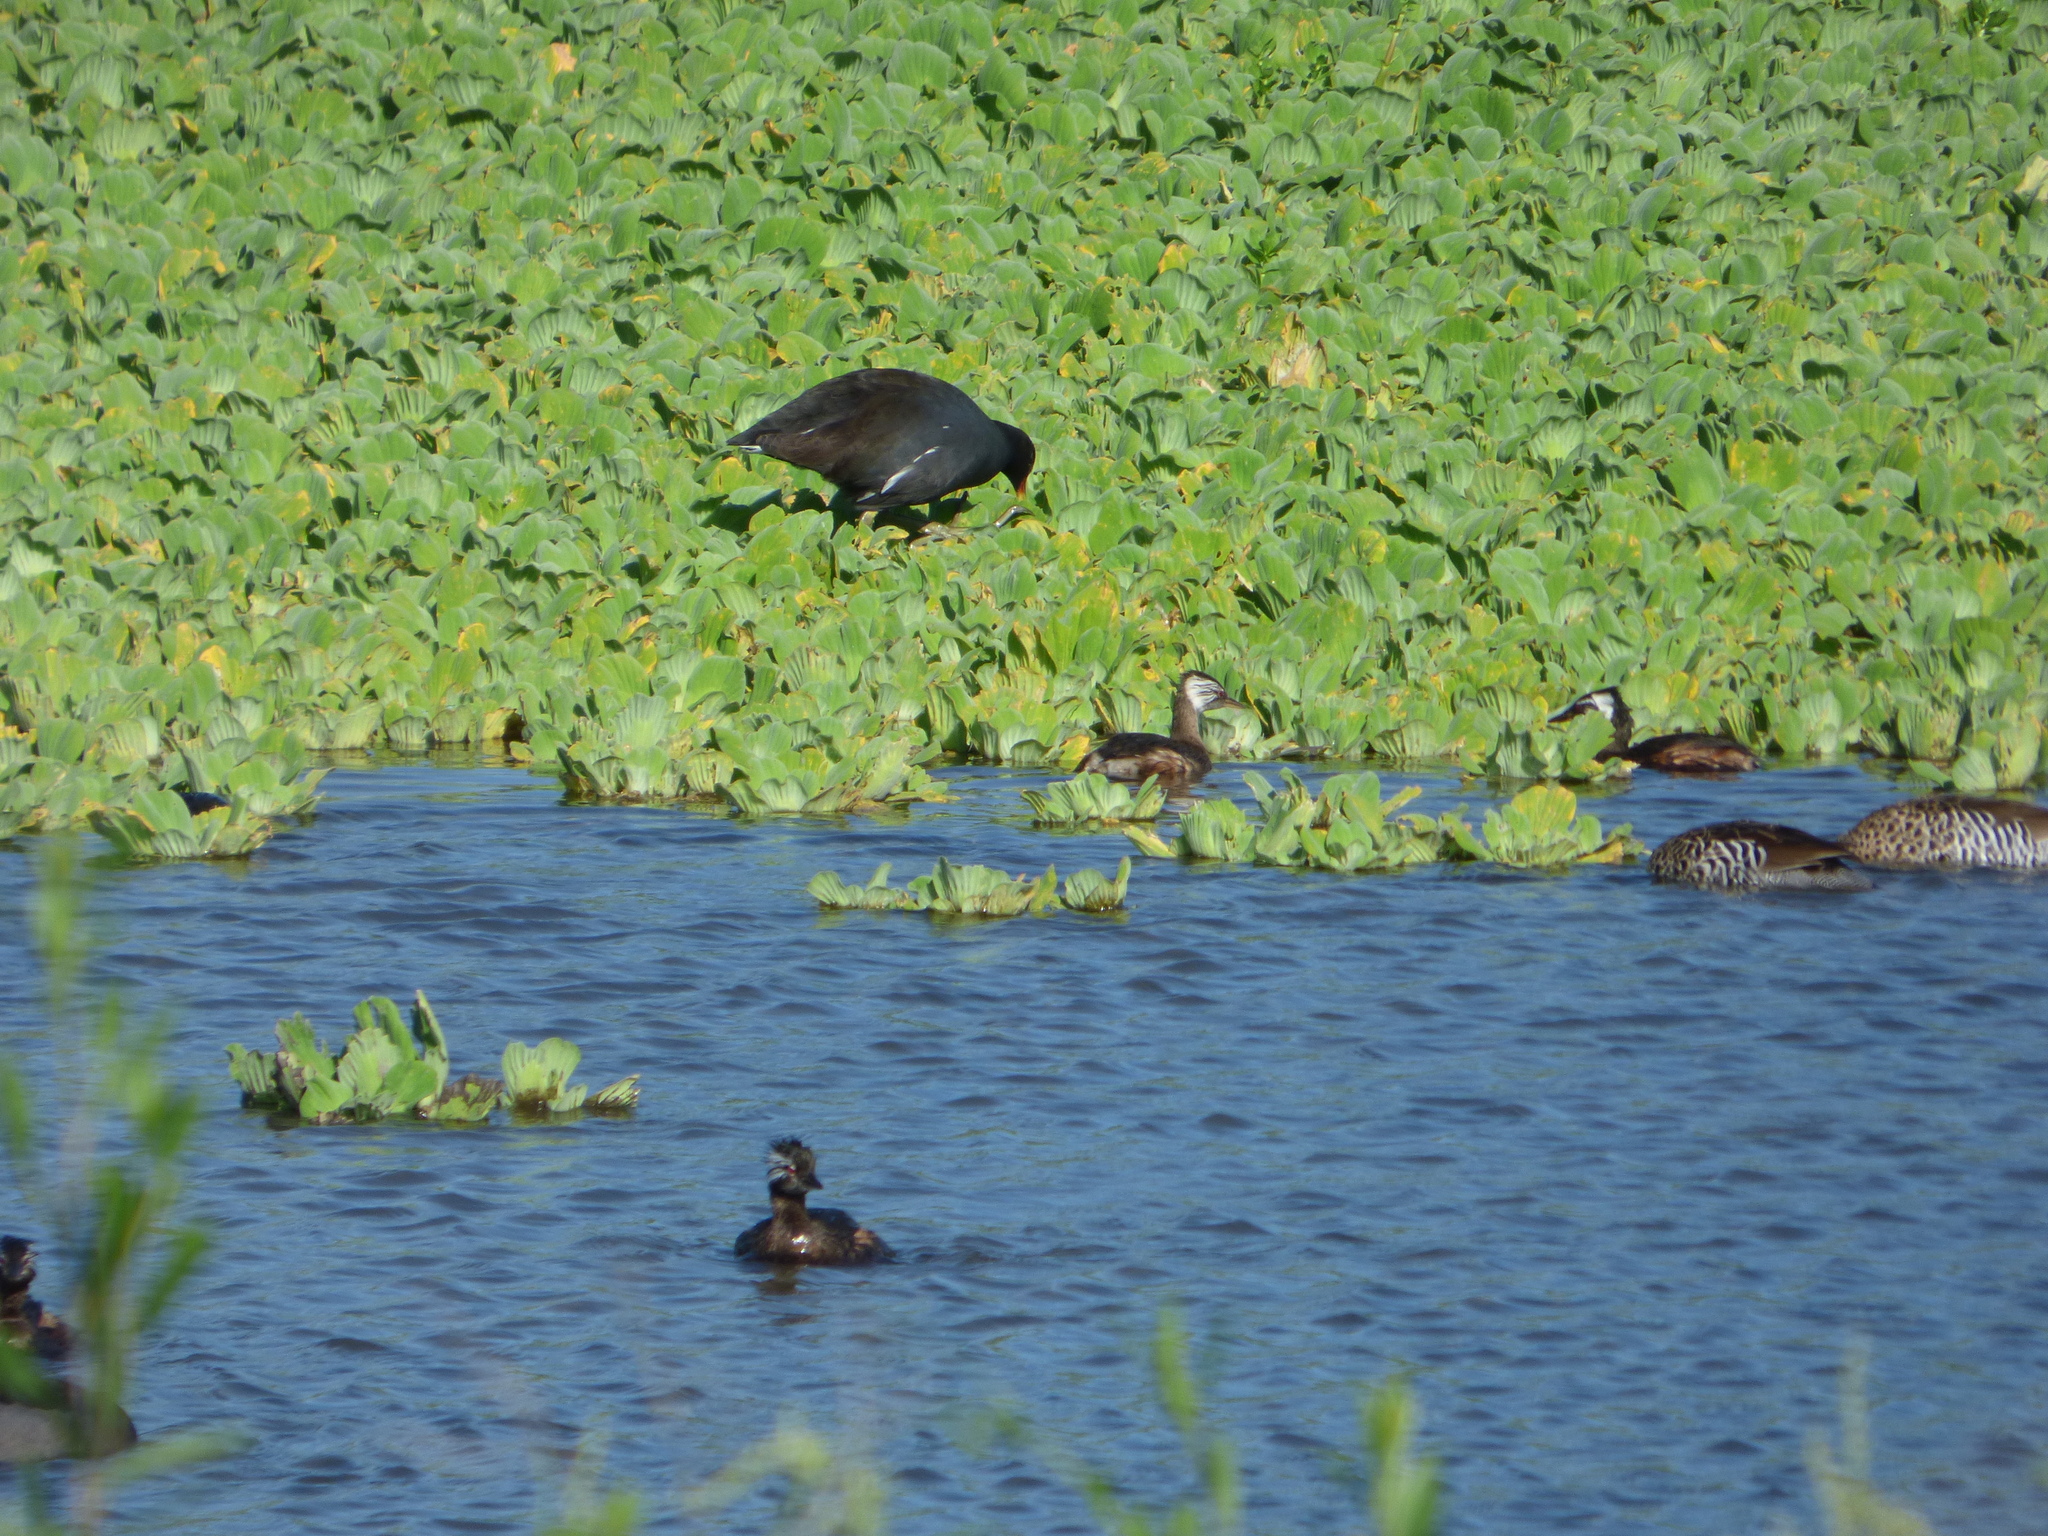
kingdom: Animalia
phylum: Chordata
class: Aves
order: Podicipediformes
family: Podicipedidae
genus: Rollandia
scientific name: Rollandia rolland
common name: White-tufted grebe
